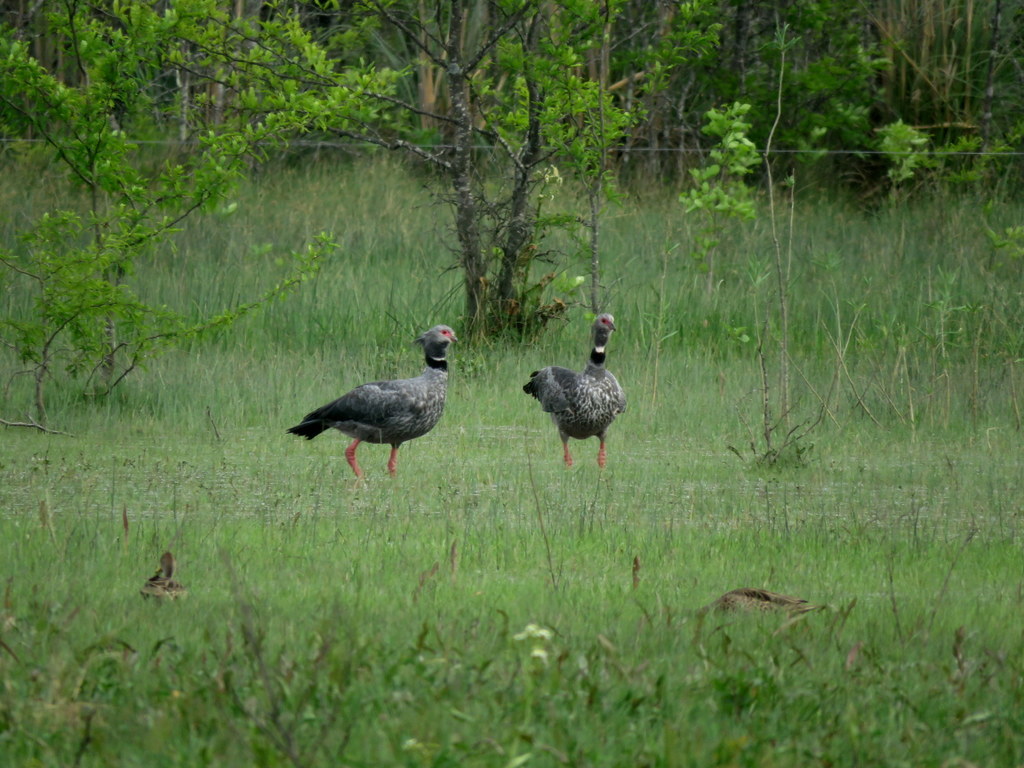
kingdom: Animalia
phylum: Chordata
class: Aves
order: Anseriformes
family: Anhimidae
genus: Chauna
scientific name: Chauna torquata
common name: Southern screamer
